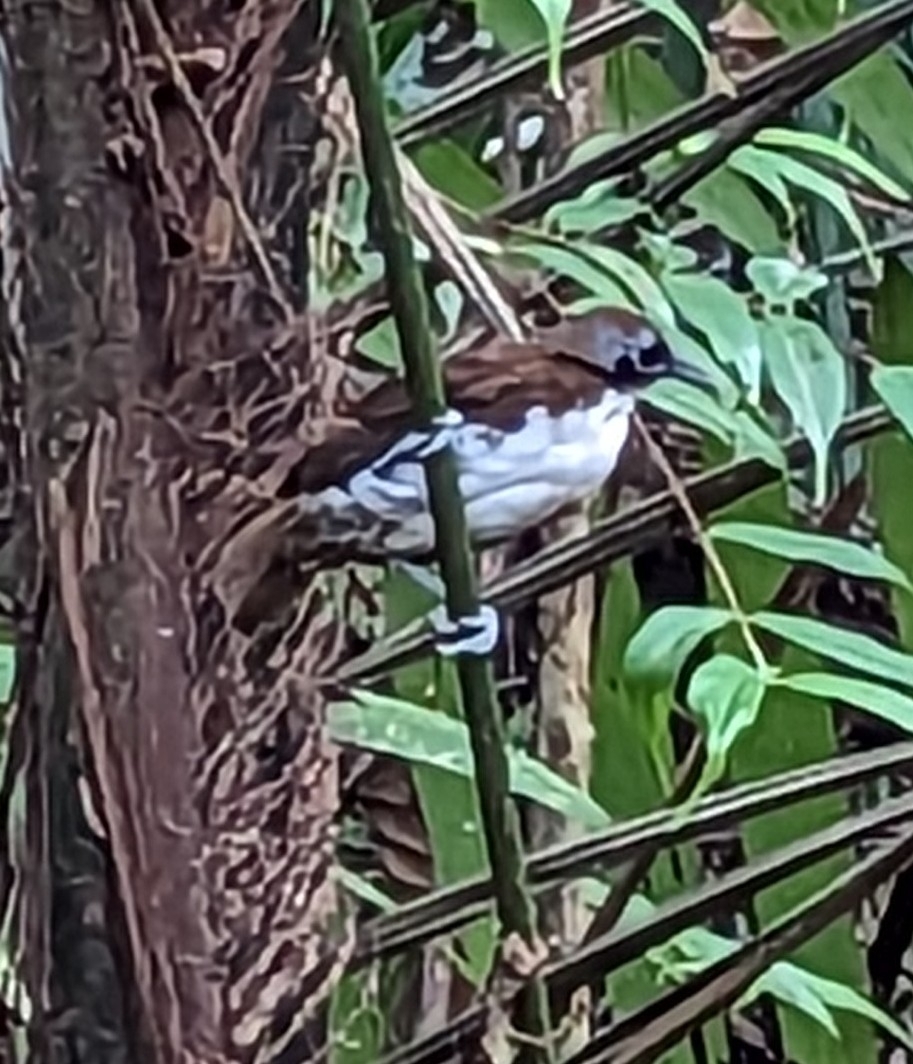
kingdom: Animalia
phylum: Chordata
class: Aves
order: Passeriformes
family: Thamnophilidae
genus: Gymnopithys
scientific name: Gymnopithys leucaspis
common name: White-cheeked antbird
